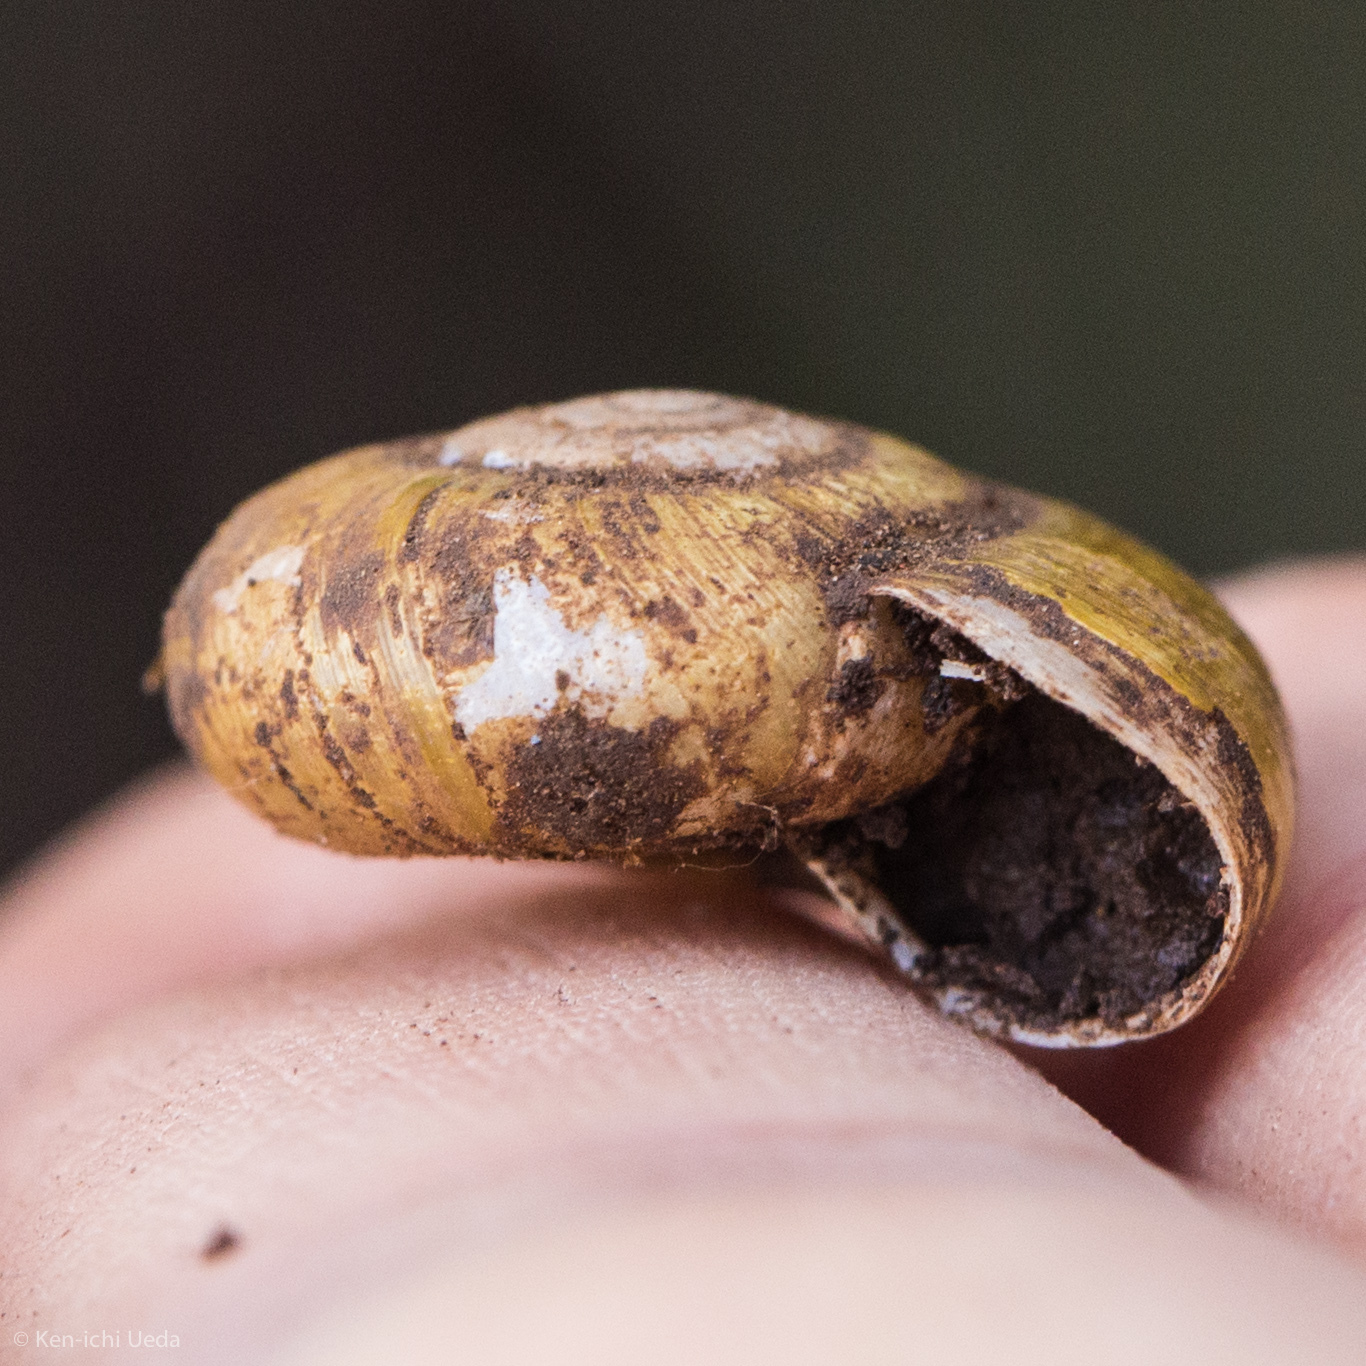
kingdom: Animalia
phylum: Mollusca
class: Gastropoda
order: Stylommatophora
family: Haplotrematidae
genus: Haplotrema
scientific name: Haplotrema minimum
